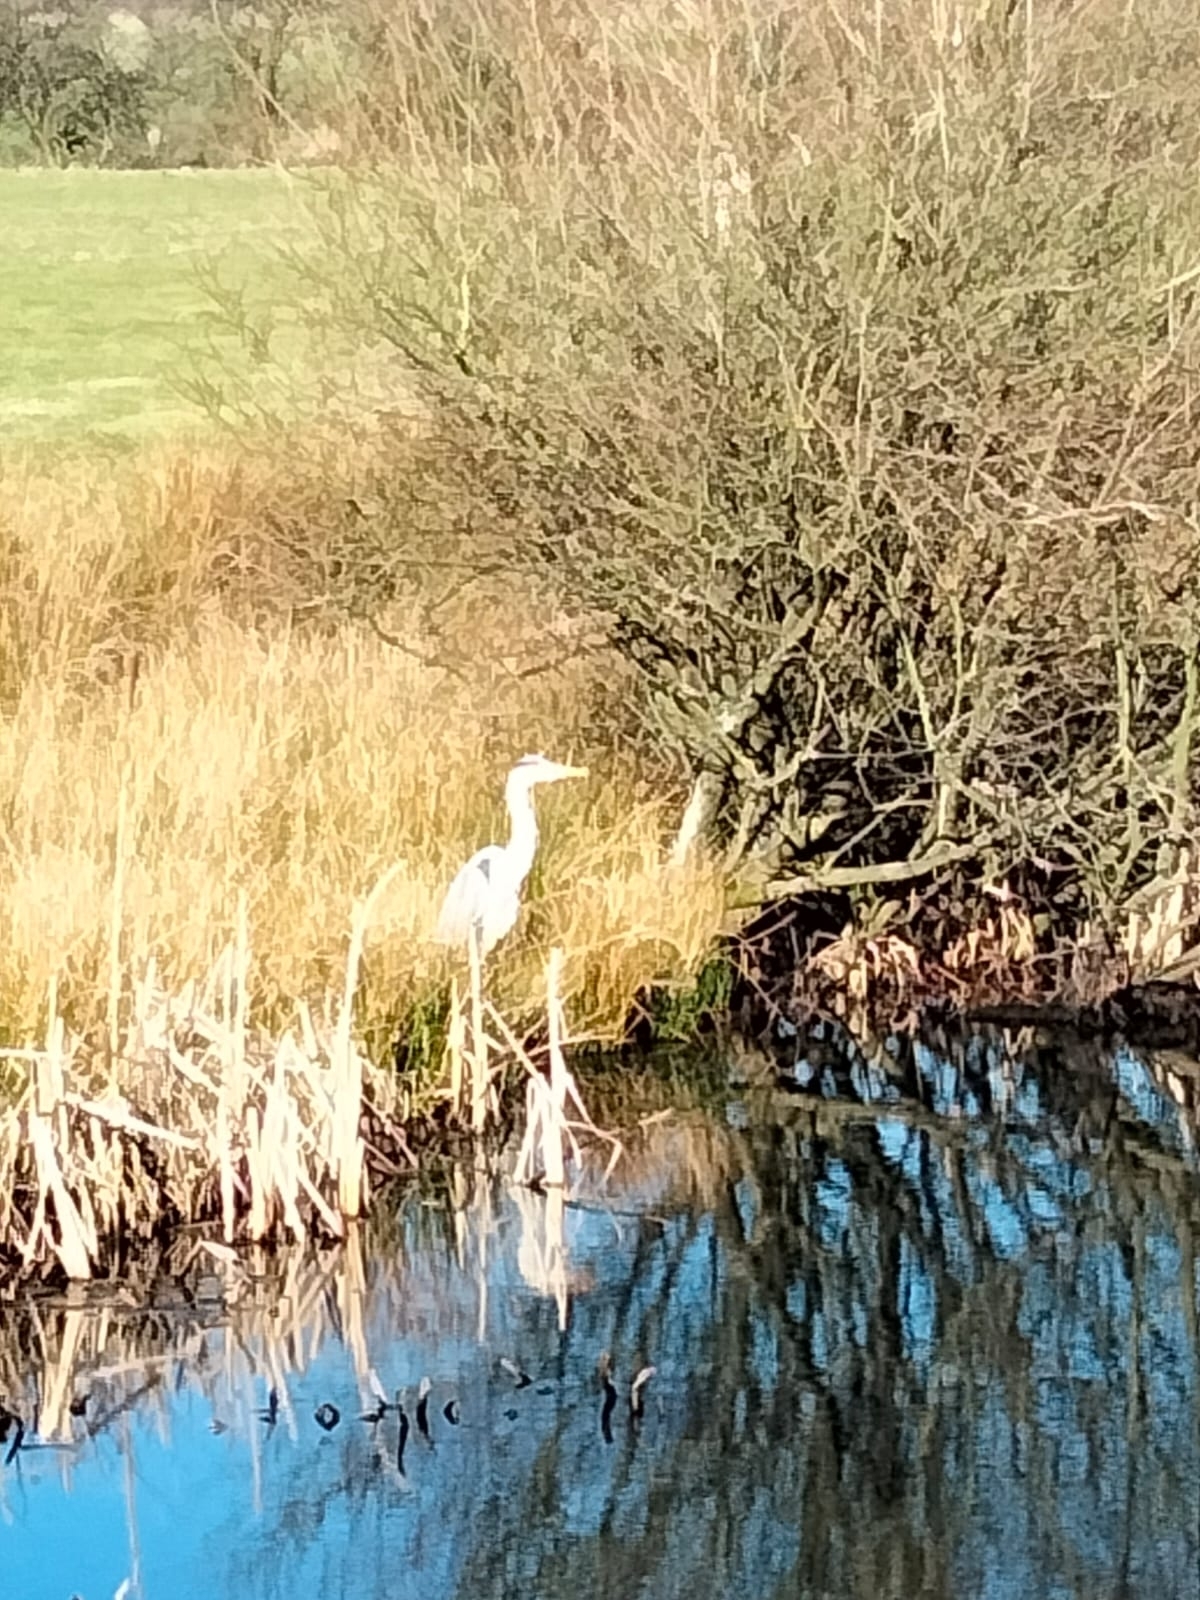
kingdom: Animalia
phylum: Chordata
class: Aves
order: Pelecaniformes
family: Ardeidae
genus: Ardea
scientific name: Ardea cinerea
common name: Grey heron
